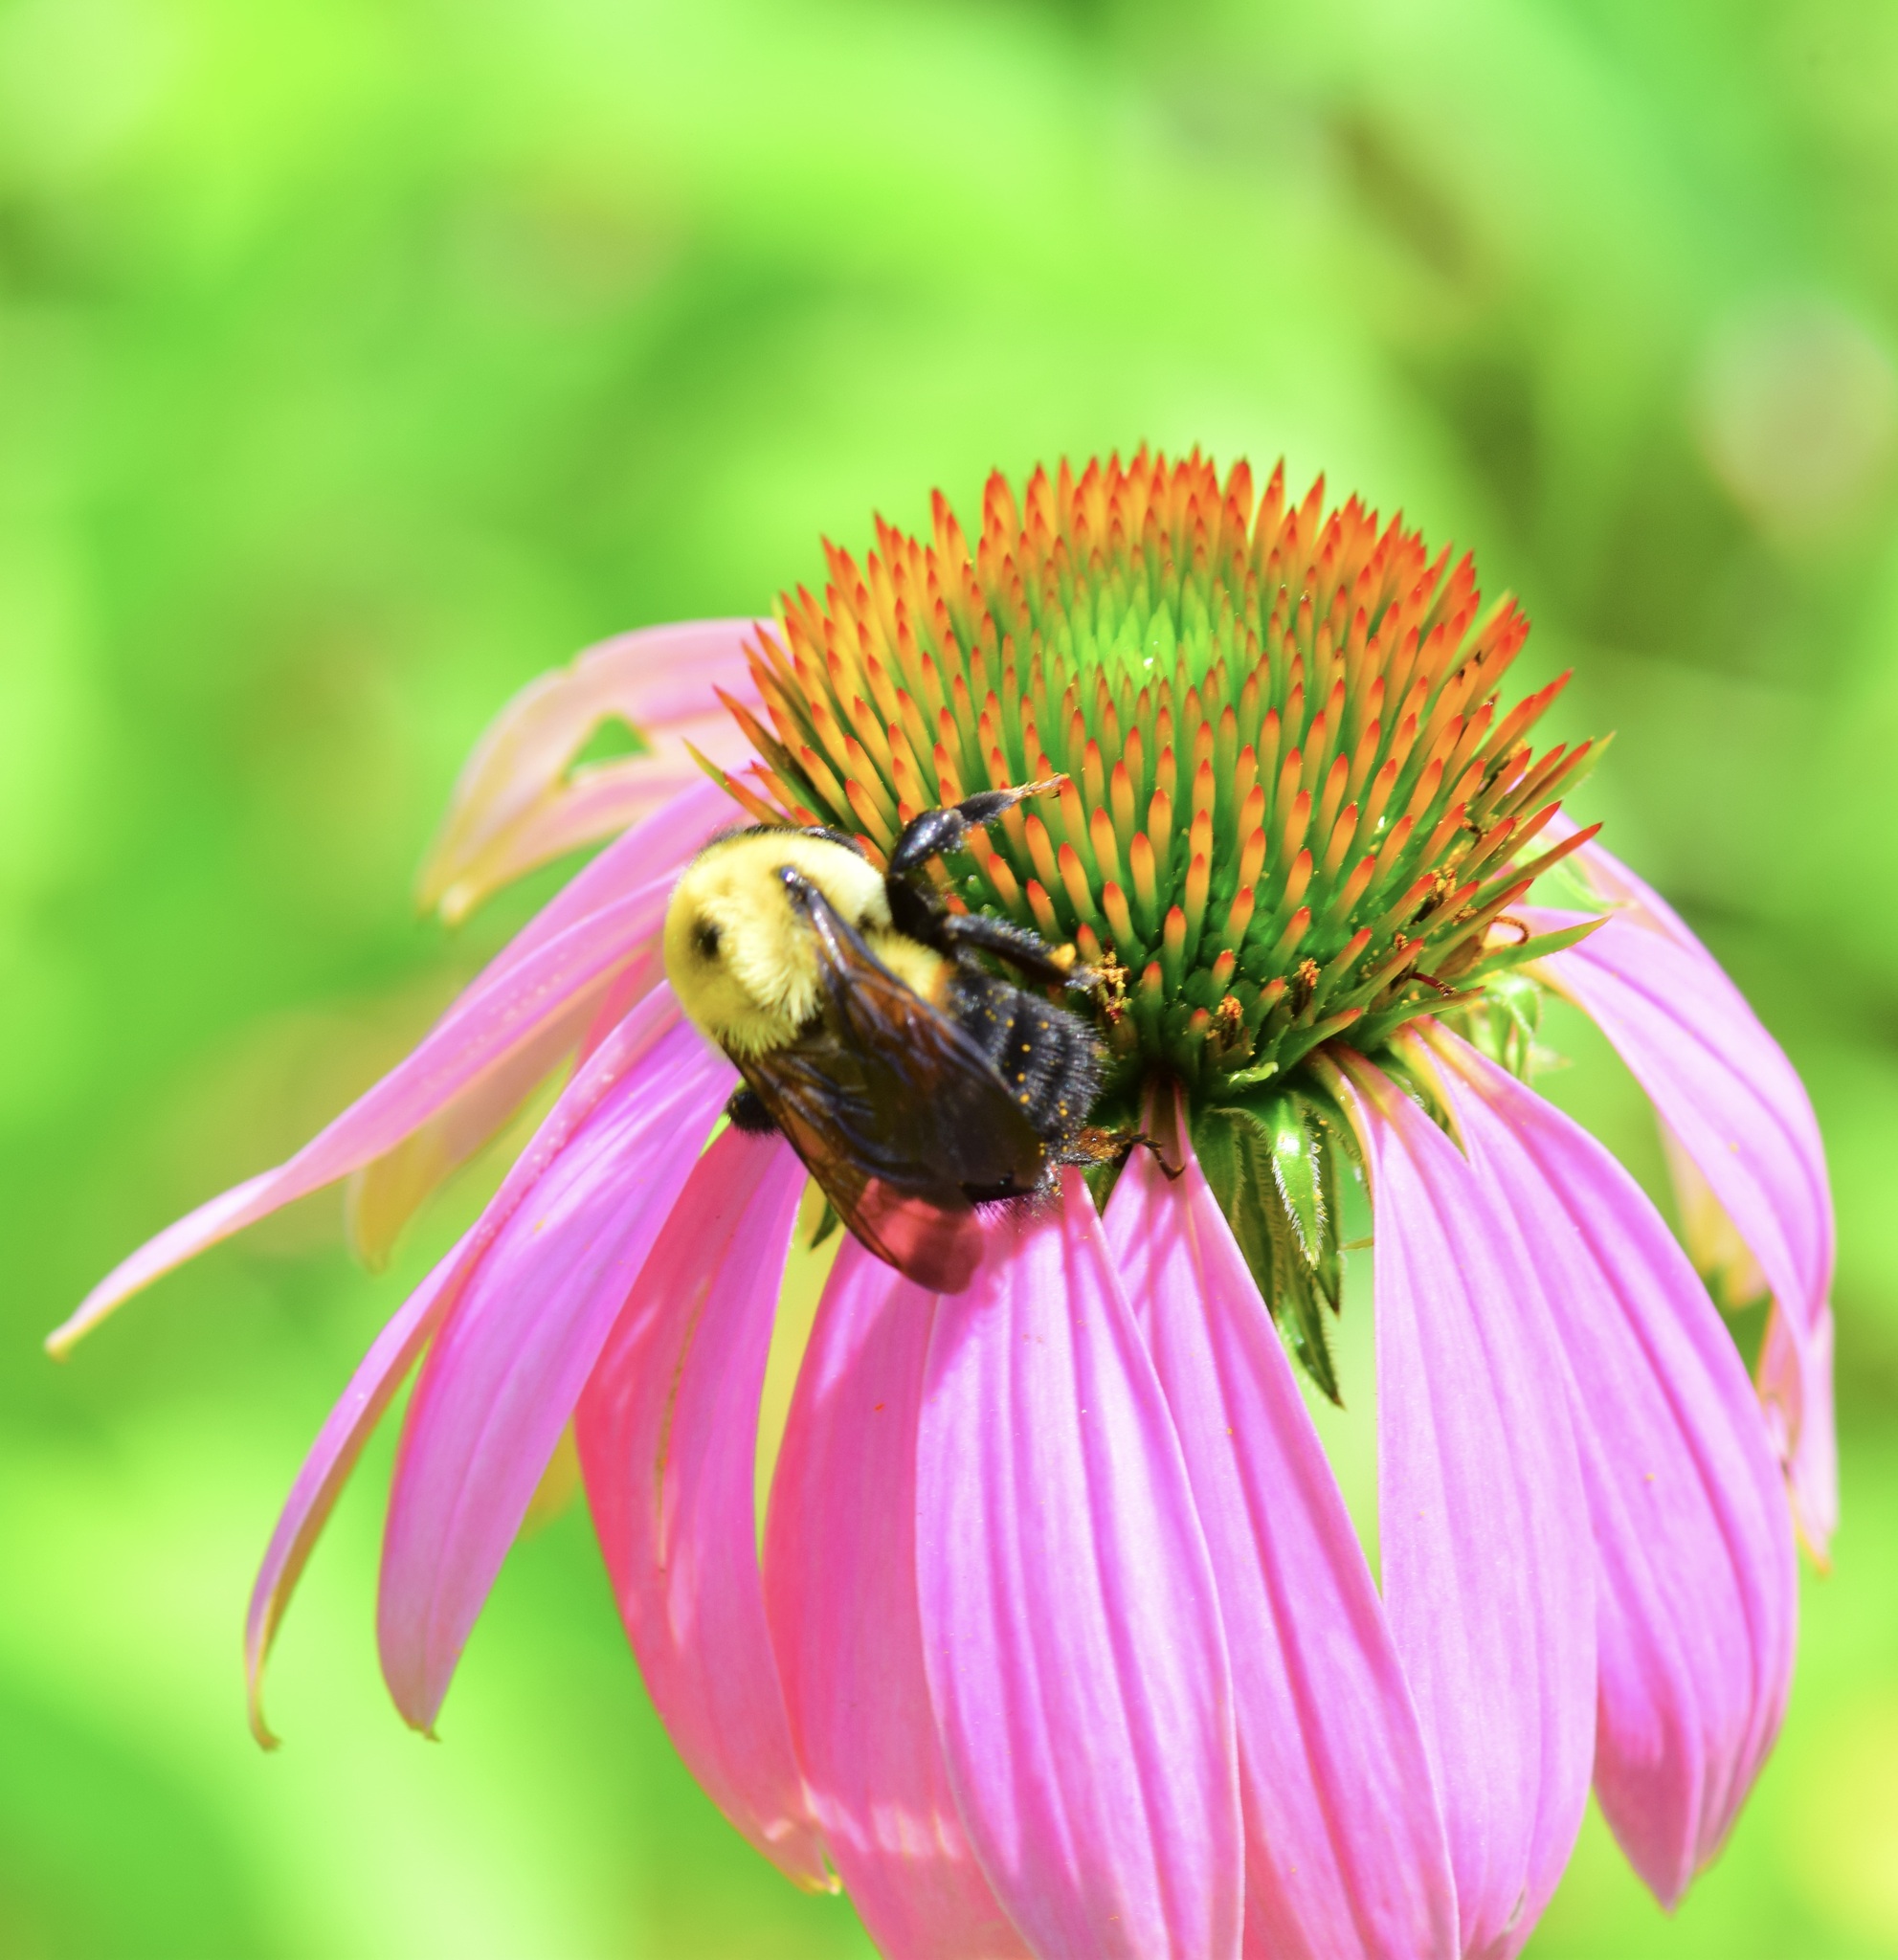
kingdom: Animalia
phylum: Arthropoda
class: Insecta
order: Hymenoptera
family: Apidae
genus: Bombus
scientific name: Bombus griseocollis
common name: Brown-belted bumble bee
